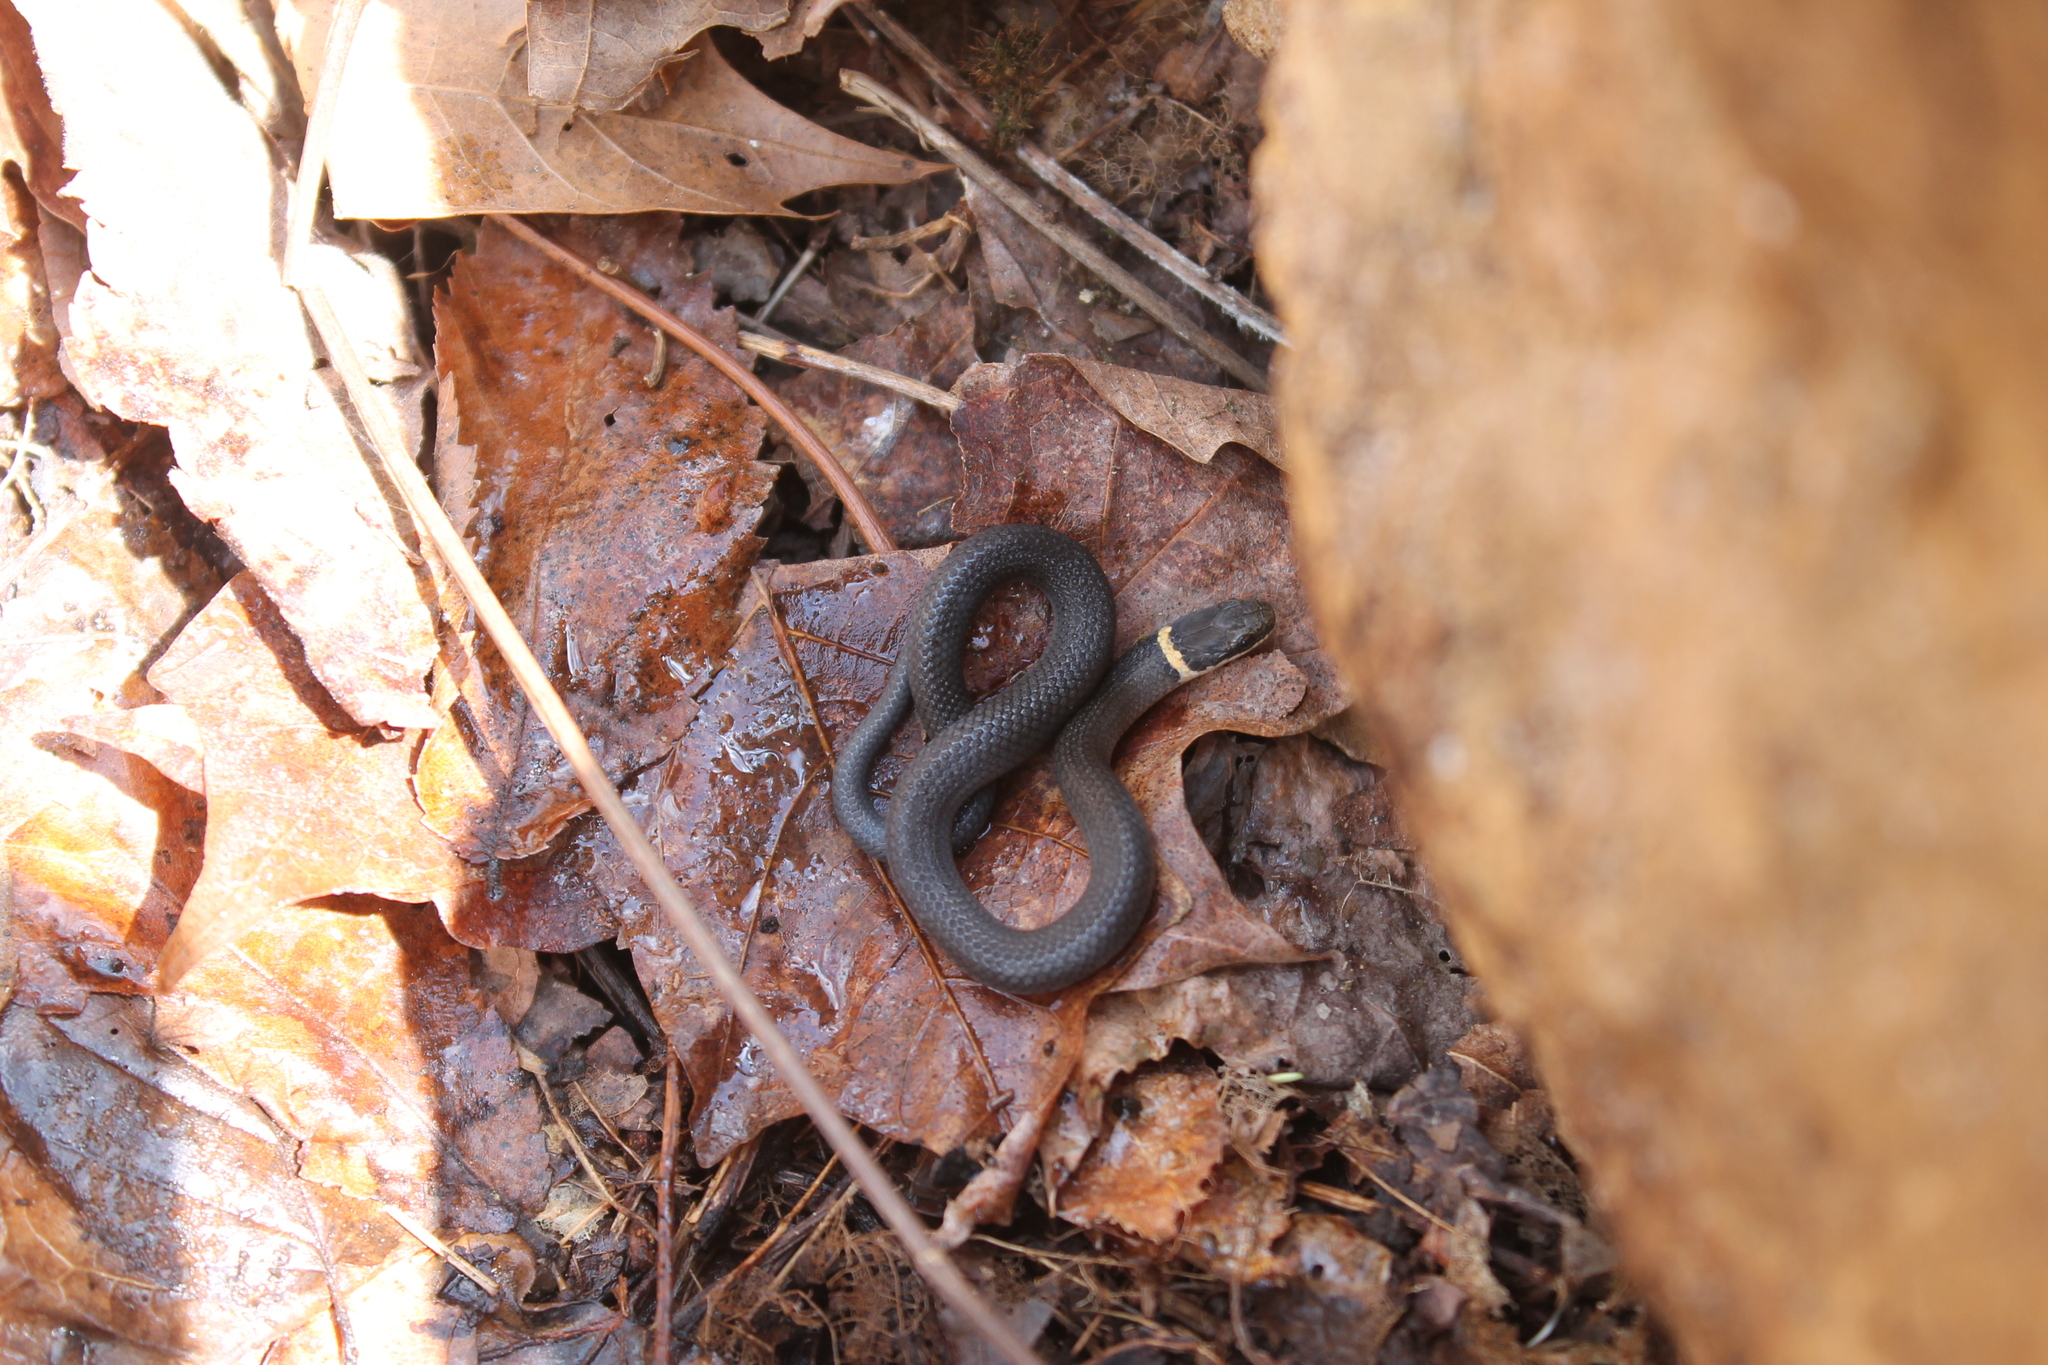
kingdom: Animalia
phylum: Chordata
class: Squamata
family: Colubridae
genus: Diadophis
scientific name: Diadophis punctatus
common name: Ringneck snake
